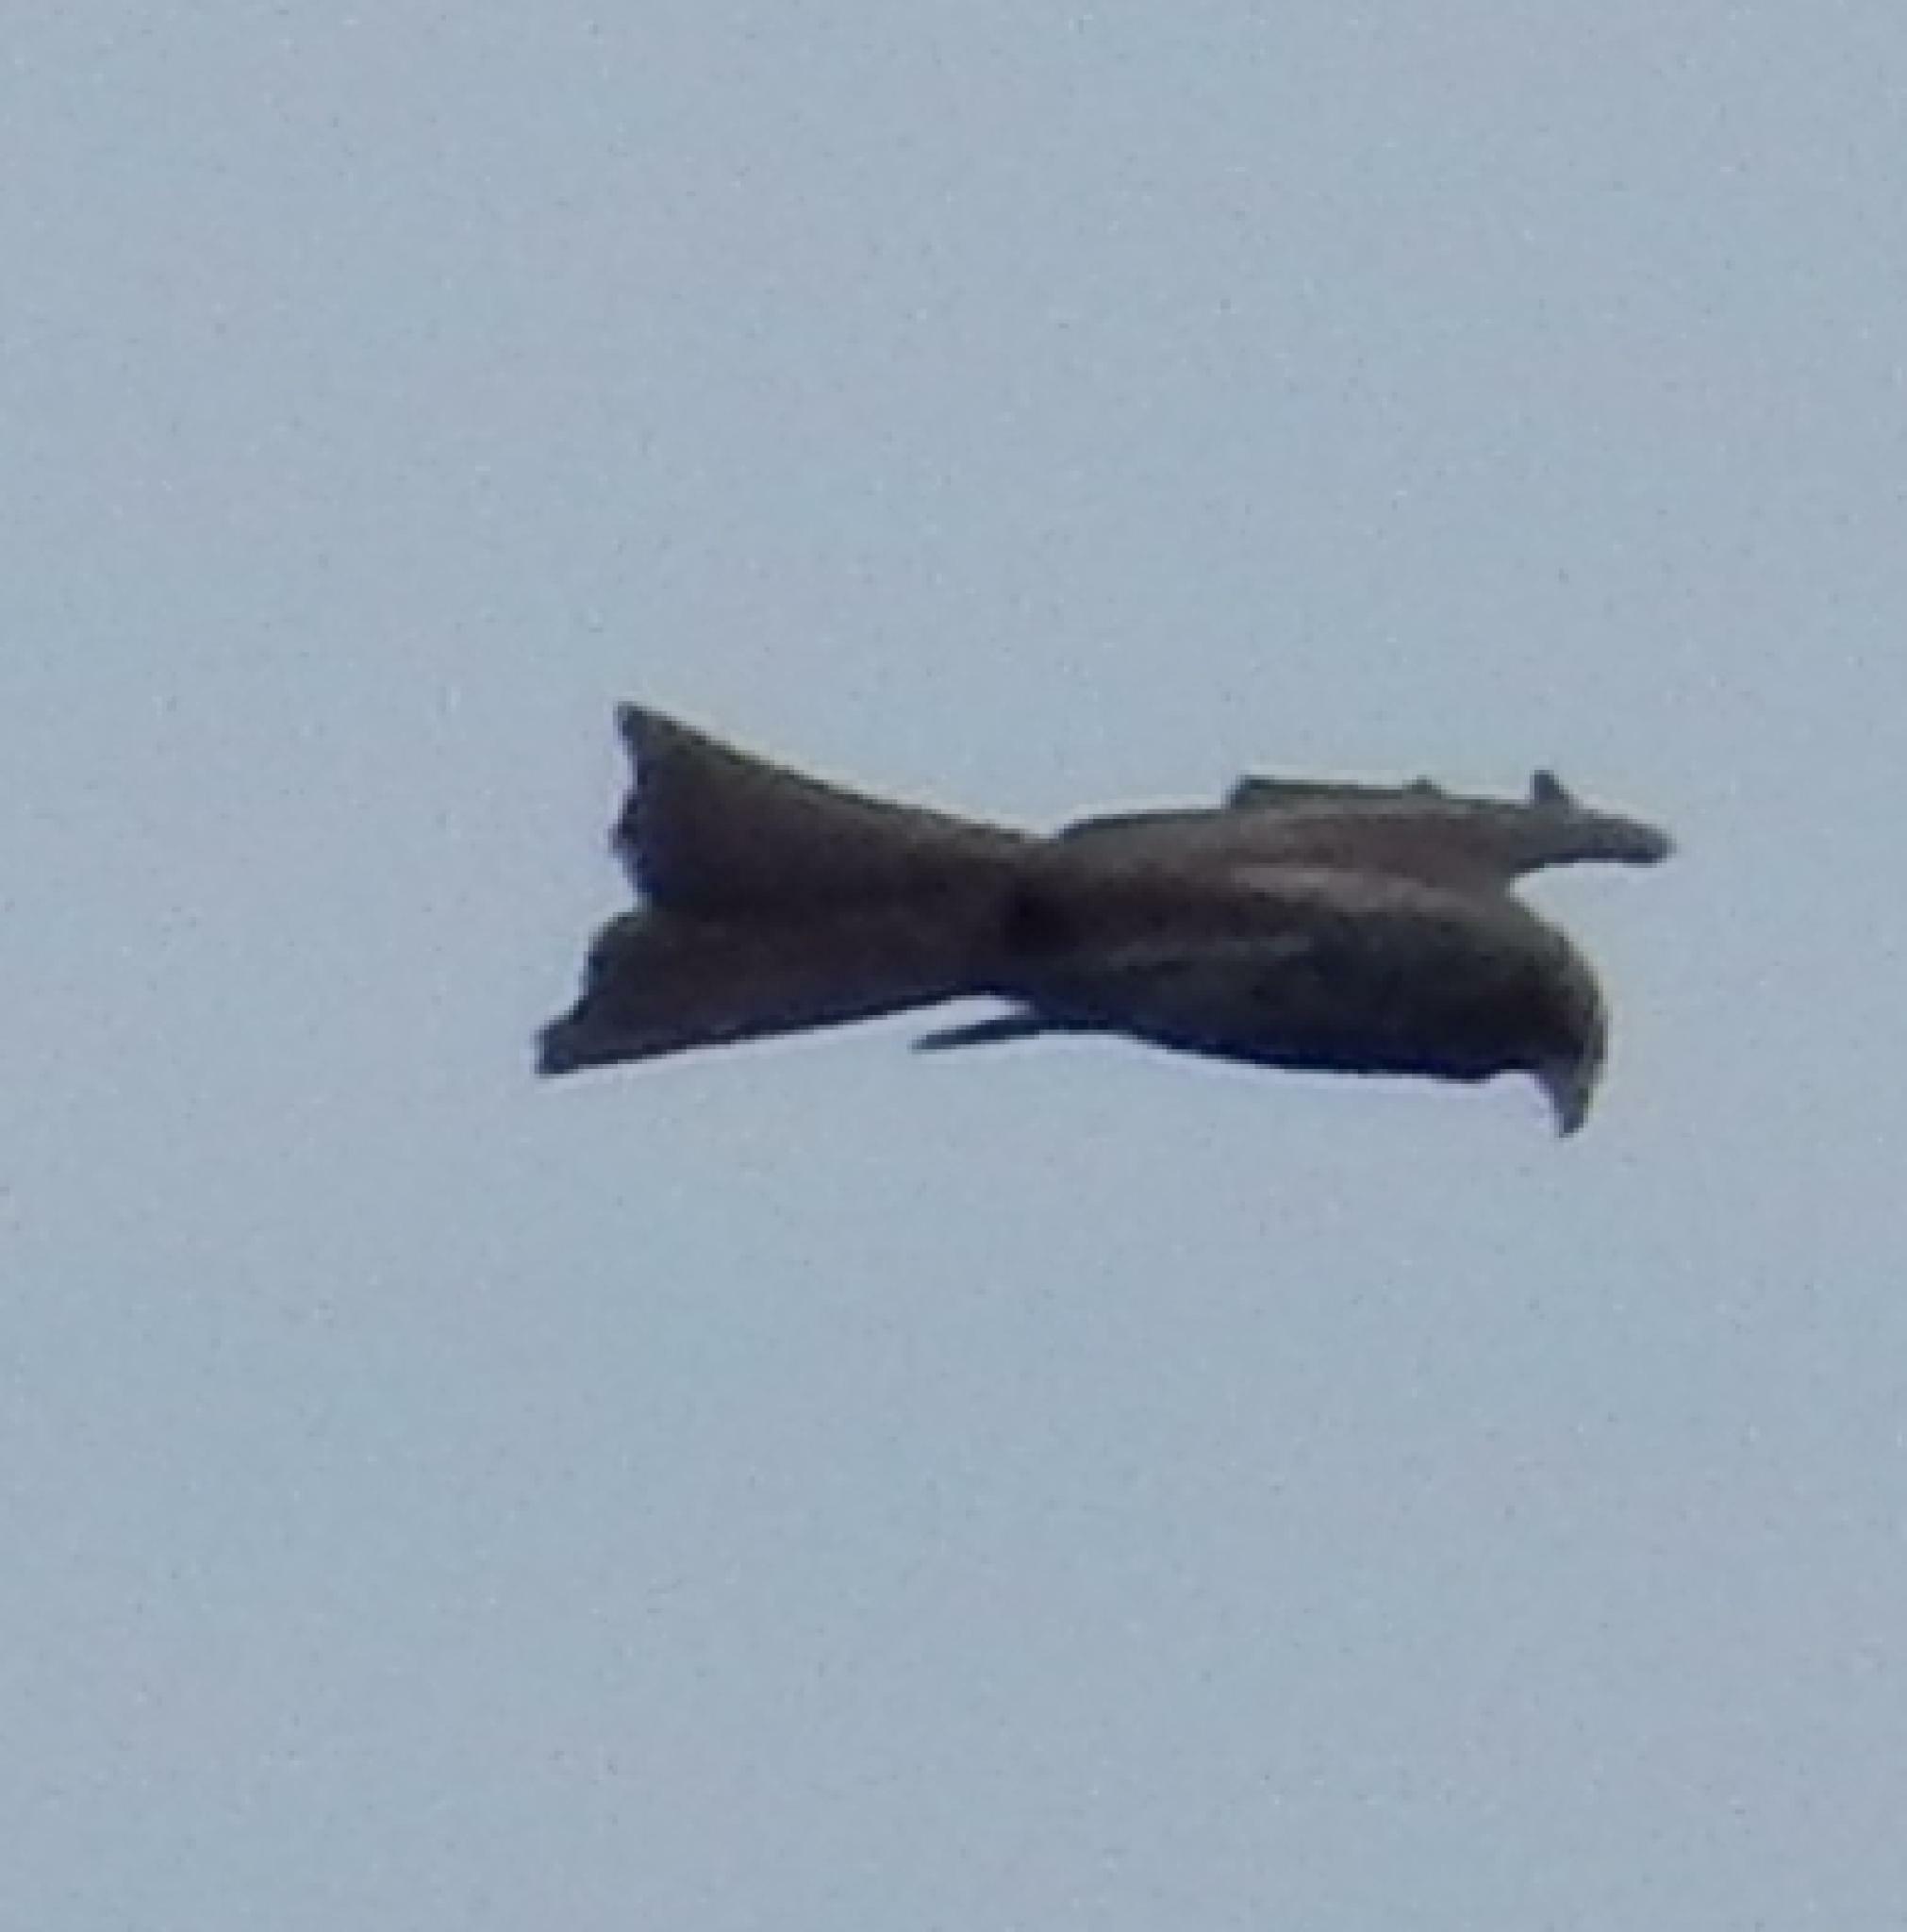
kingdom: Animalia
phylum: Chordata
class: Aves
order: Accipitriformes
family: Accipitridae
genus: Milvus
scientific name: Milvus migrans
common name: Black kite
